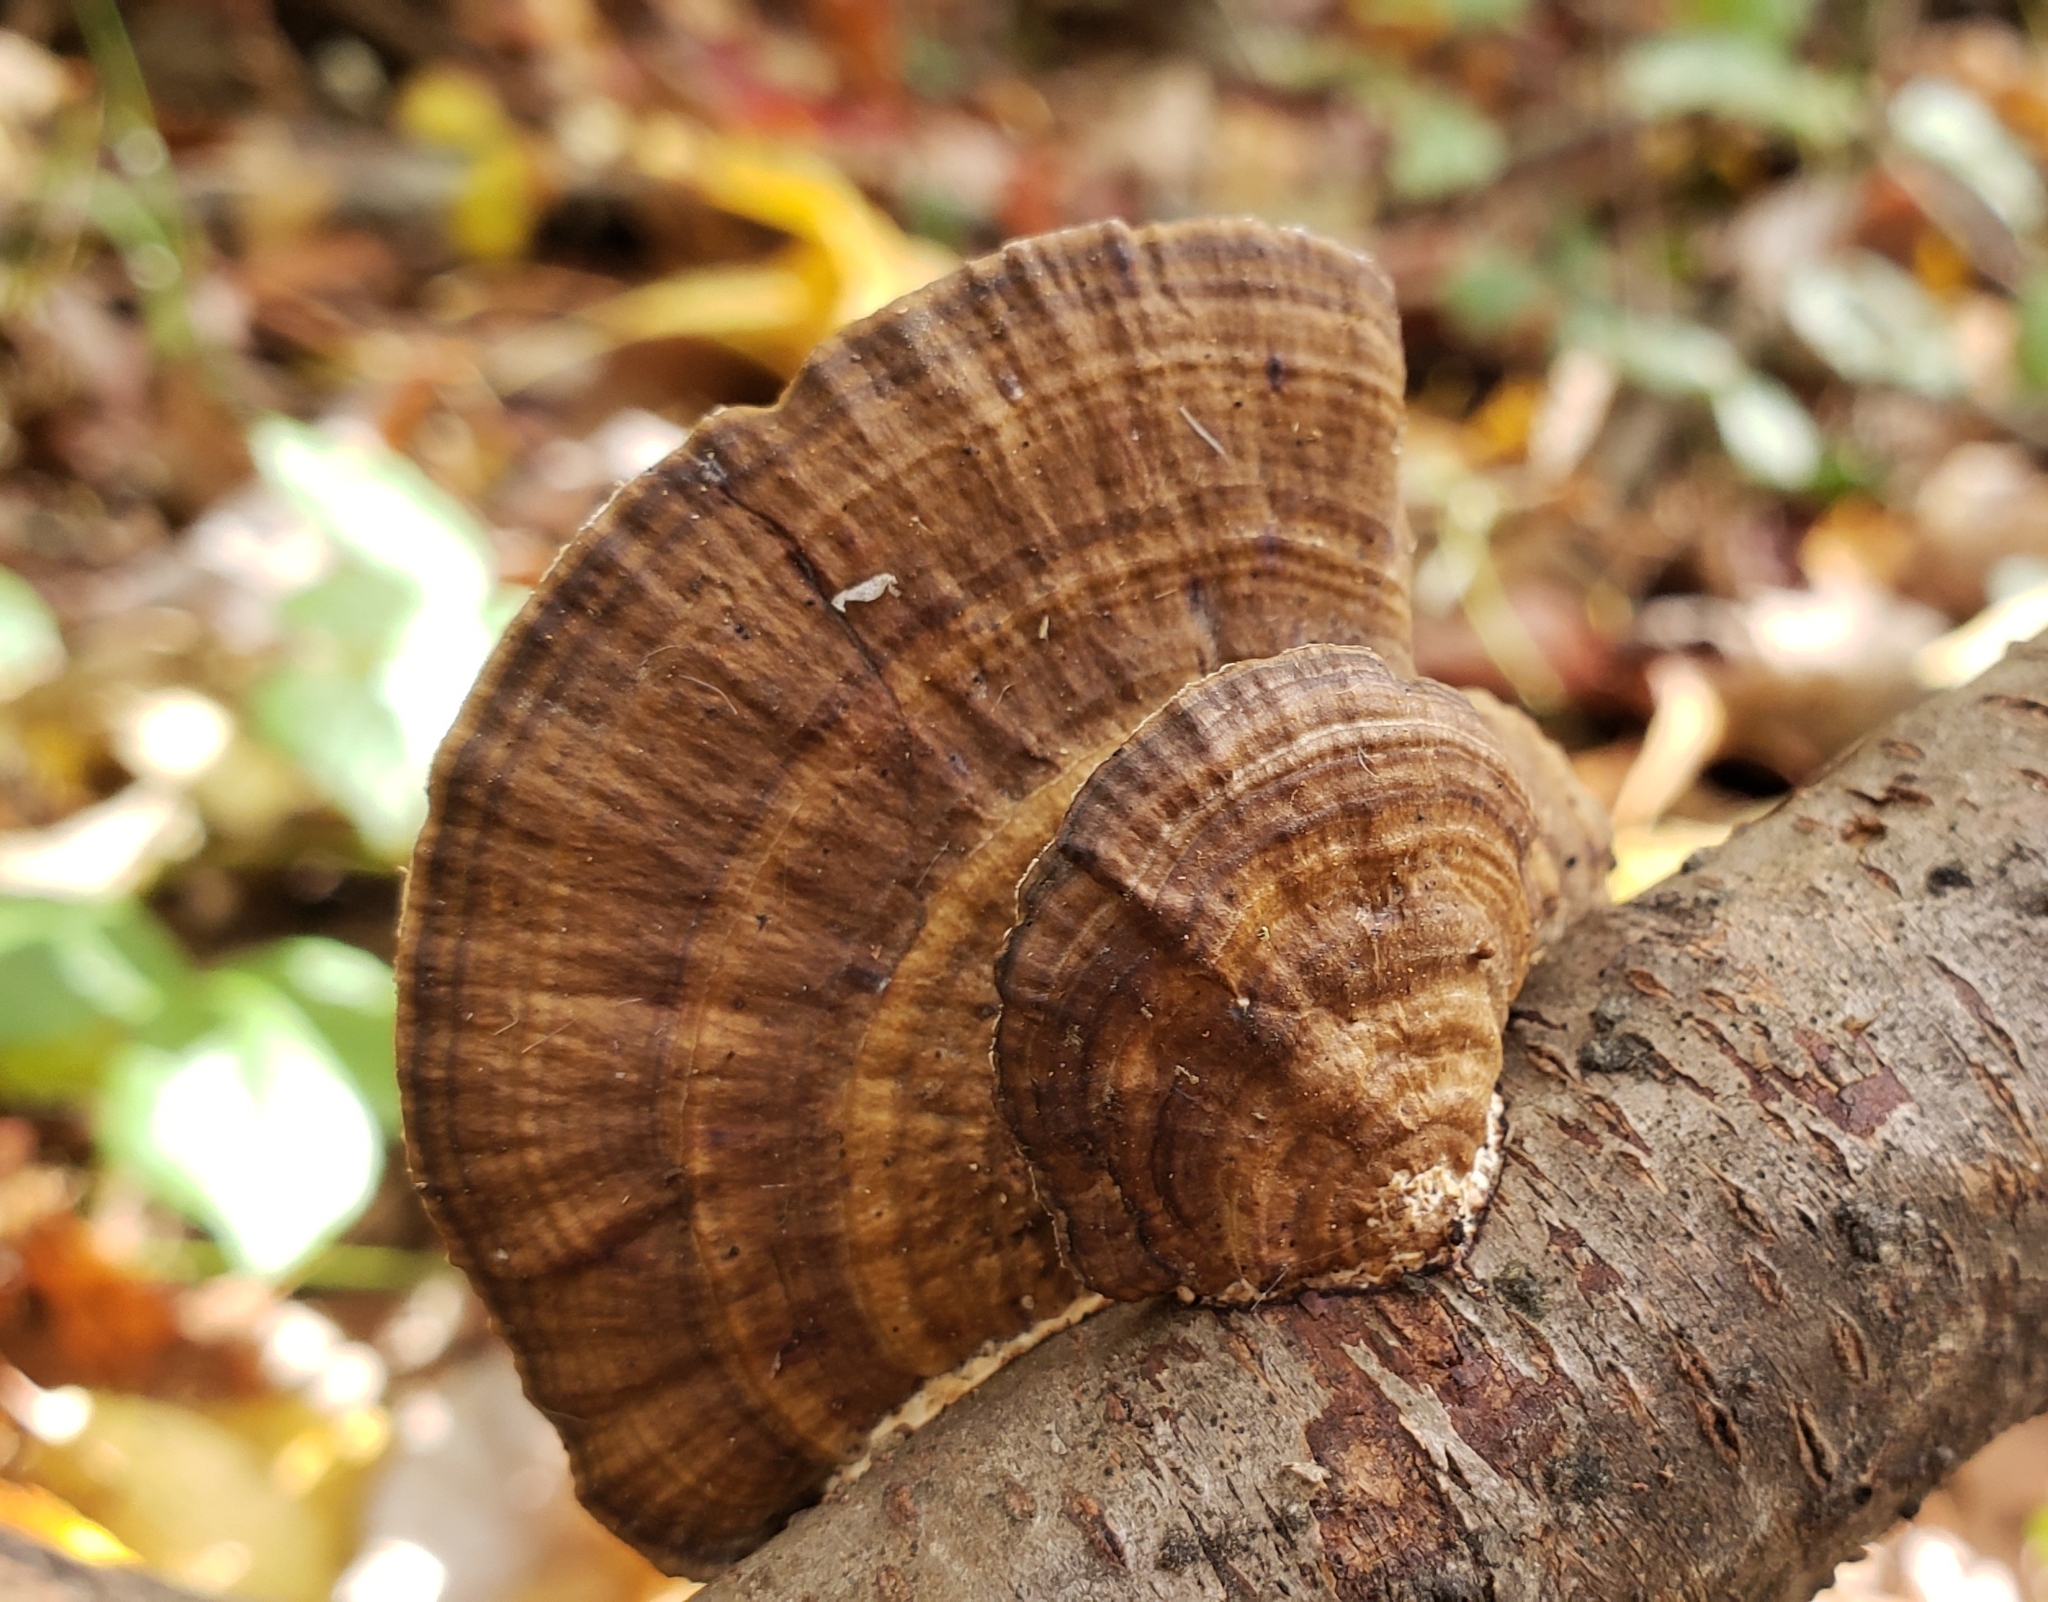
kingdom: Fungi
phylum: Basidiomycota
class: Agaricomycetes
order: Polyporales
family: Polyporaceae
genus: Daedaleopsis
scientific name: Daedaleopsis confragosa
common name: Blushing bracket
